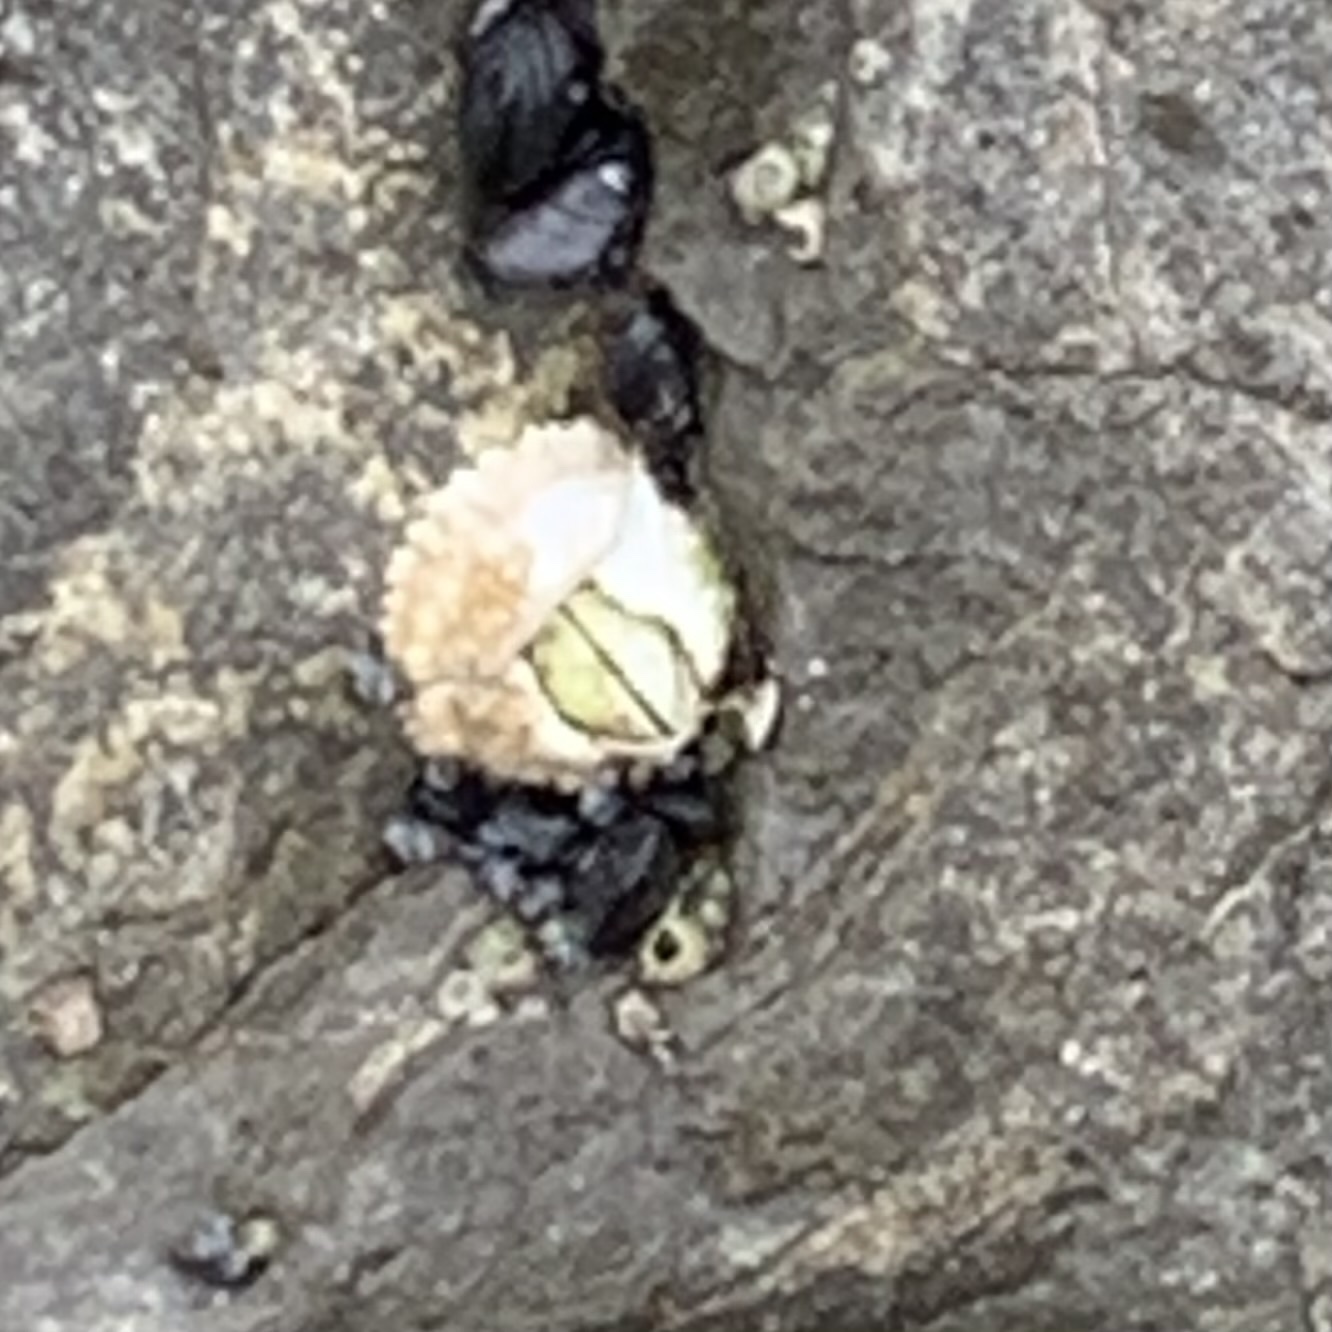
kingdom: Animalia
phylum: Arthropoda
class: Maxillopoda
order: Sessilia
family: Tetraclitidae
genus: Epopella
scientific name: Epopella plicata
